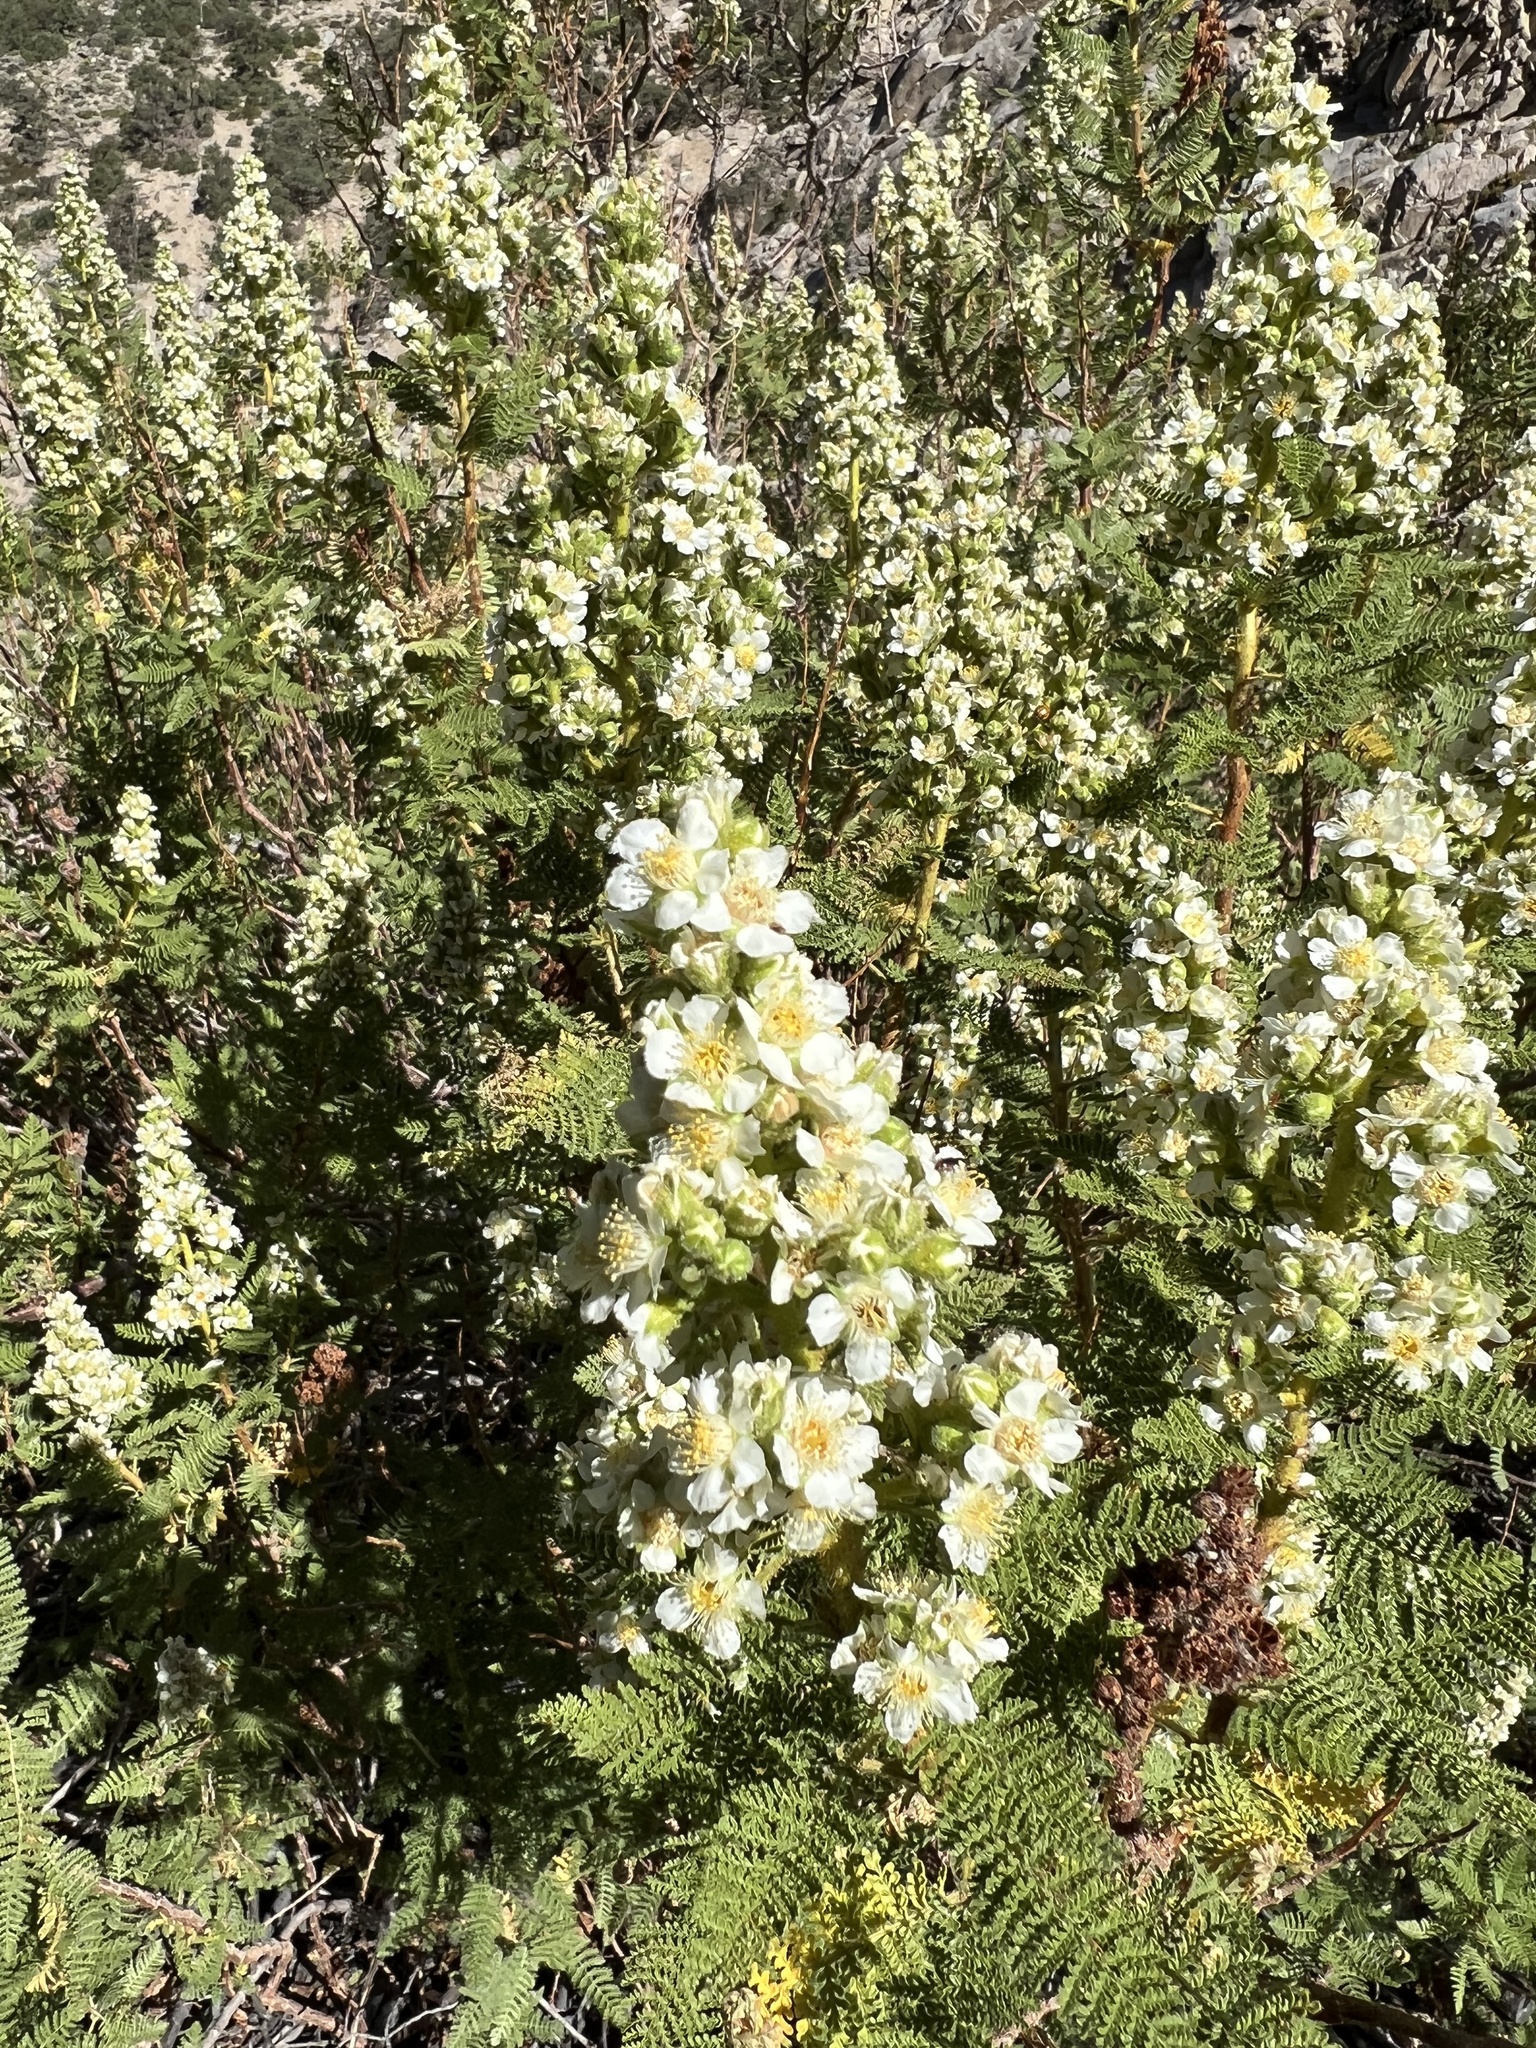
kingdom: Plantae
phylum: Tracheophyta
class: Magnoliopsida
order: Rosales
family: Rosaceae
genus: Chamaebatiaria
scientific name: Chamaebatiaria millefolium
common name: Fernbush
